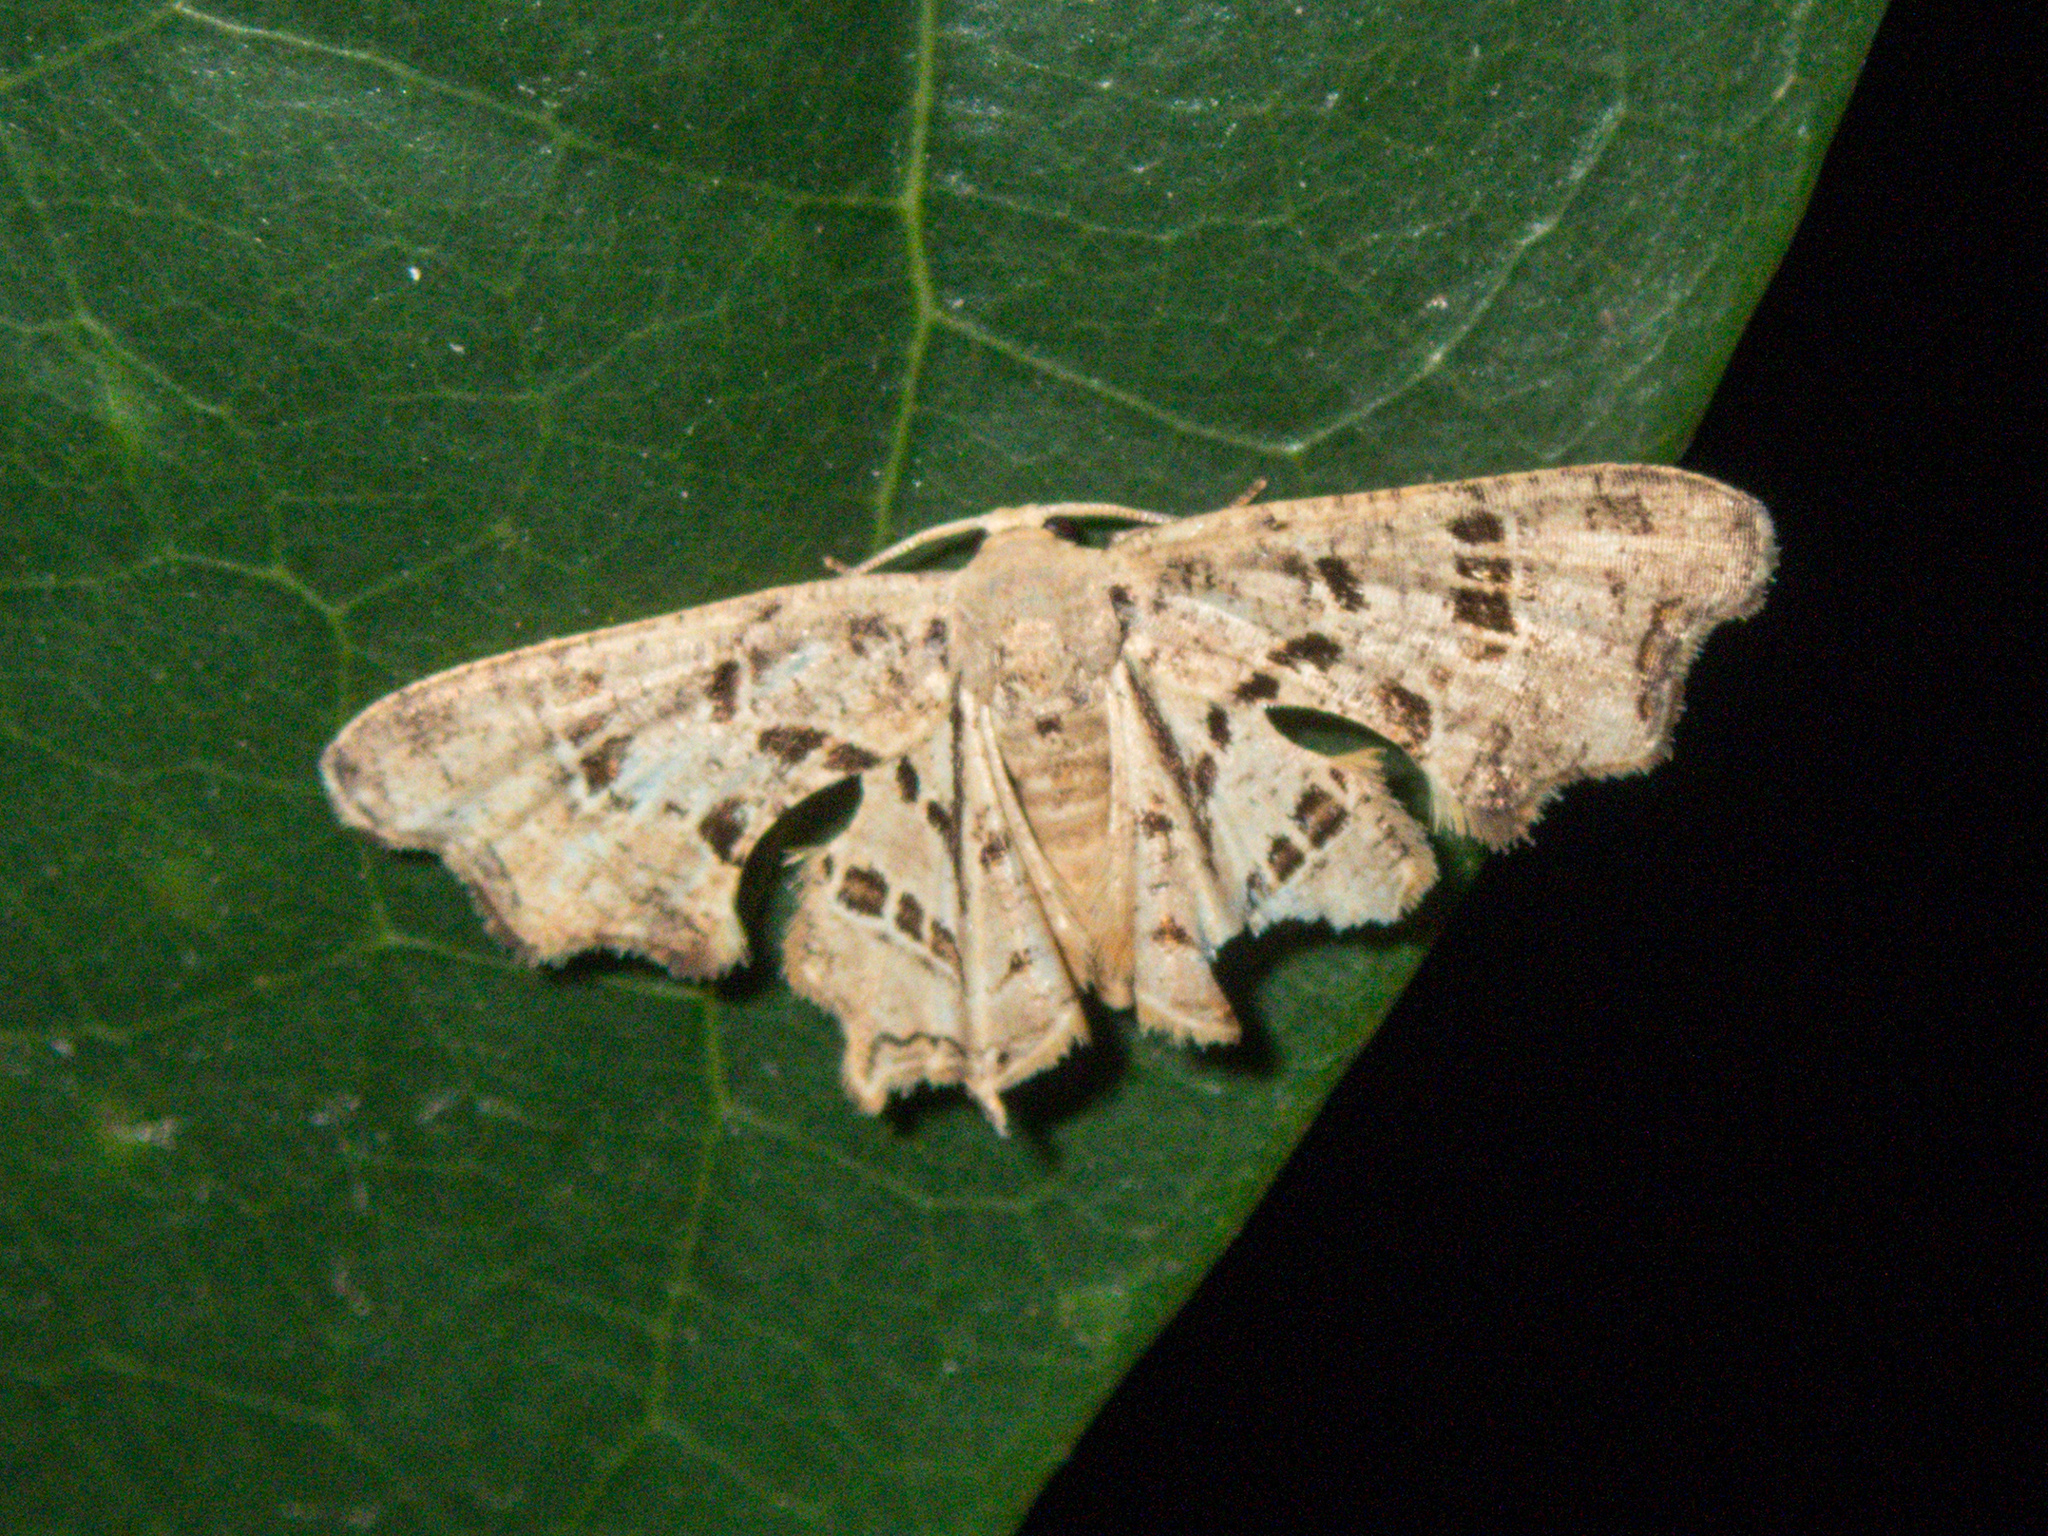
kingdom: Animalia
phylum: Arthropoda
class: Insecta
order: Lepidoptera
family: Uraniidae
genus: Epiplema
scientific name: Epiplema clathrata
